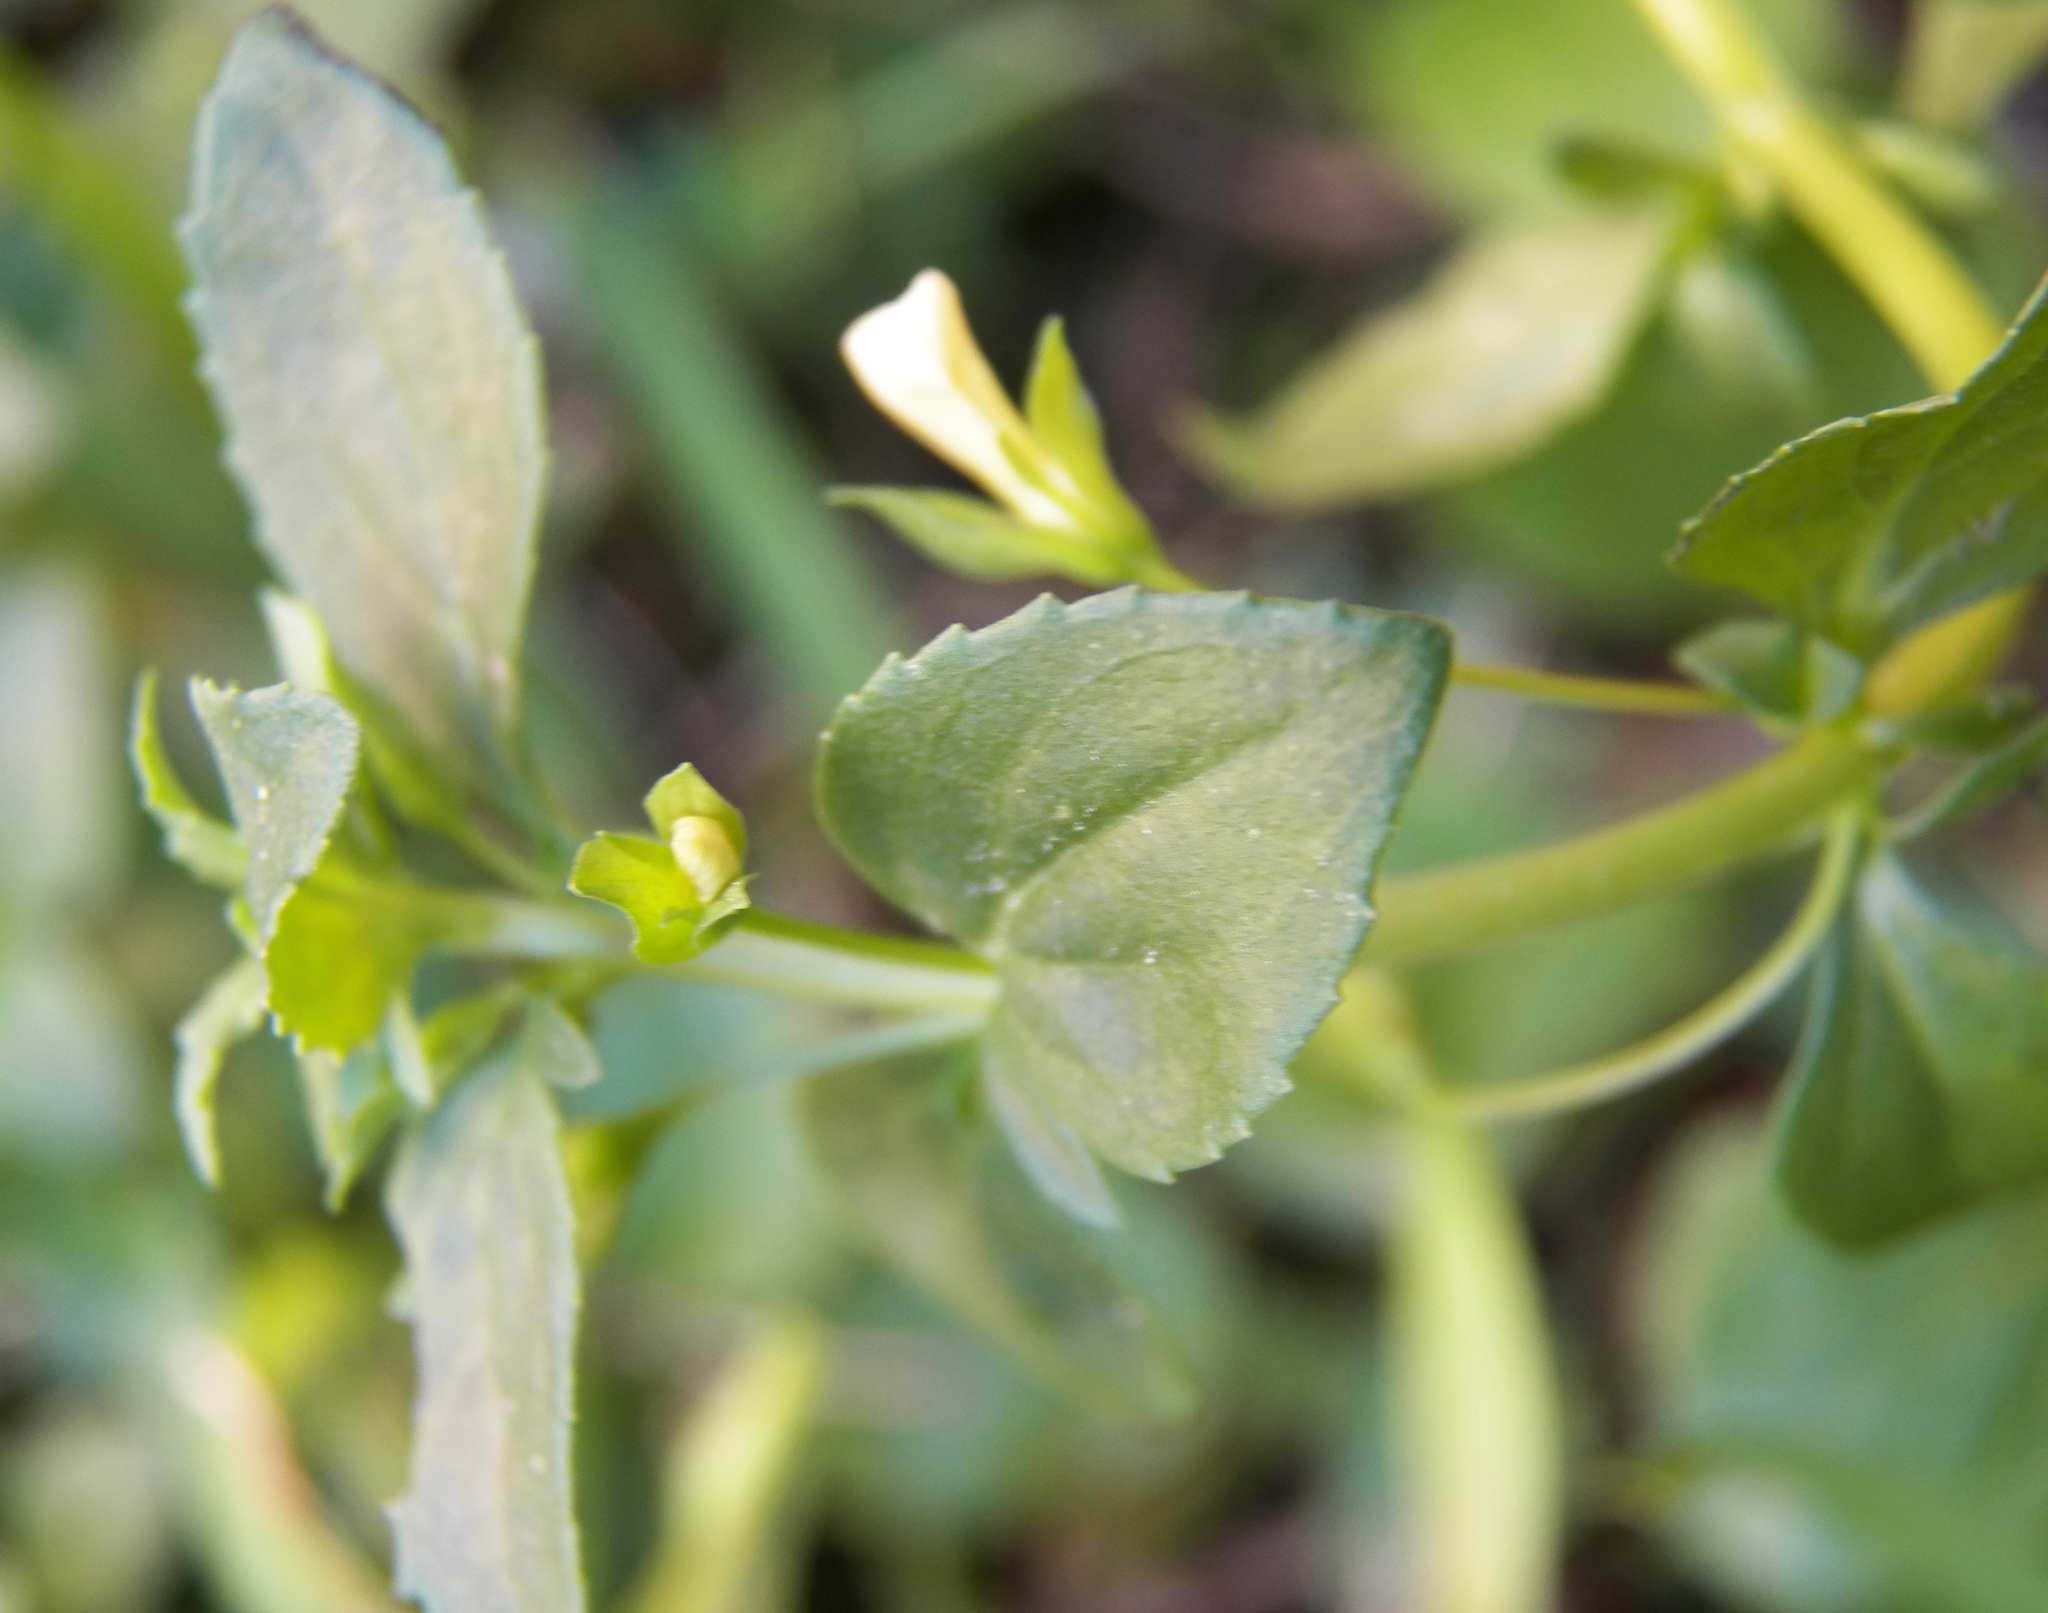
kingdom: Plantae
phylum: Tracheophyta
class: Magnoliopsida
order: Lamiales
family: Plantaginaceae
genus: Mecardonia
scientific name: Mecardonia procumbens
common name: Baby jump-up
